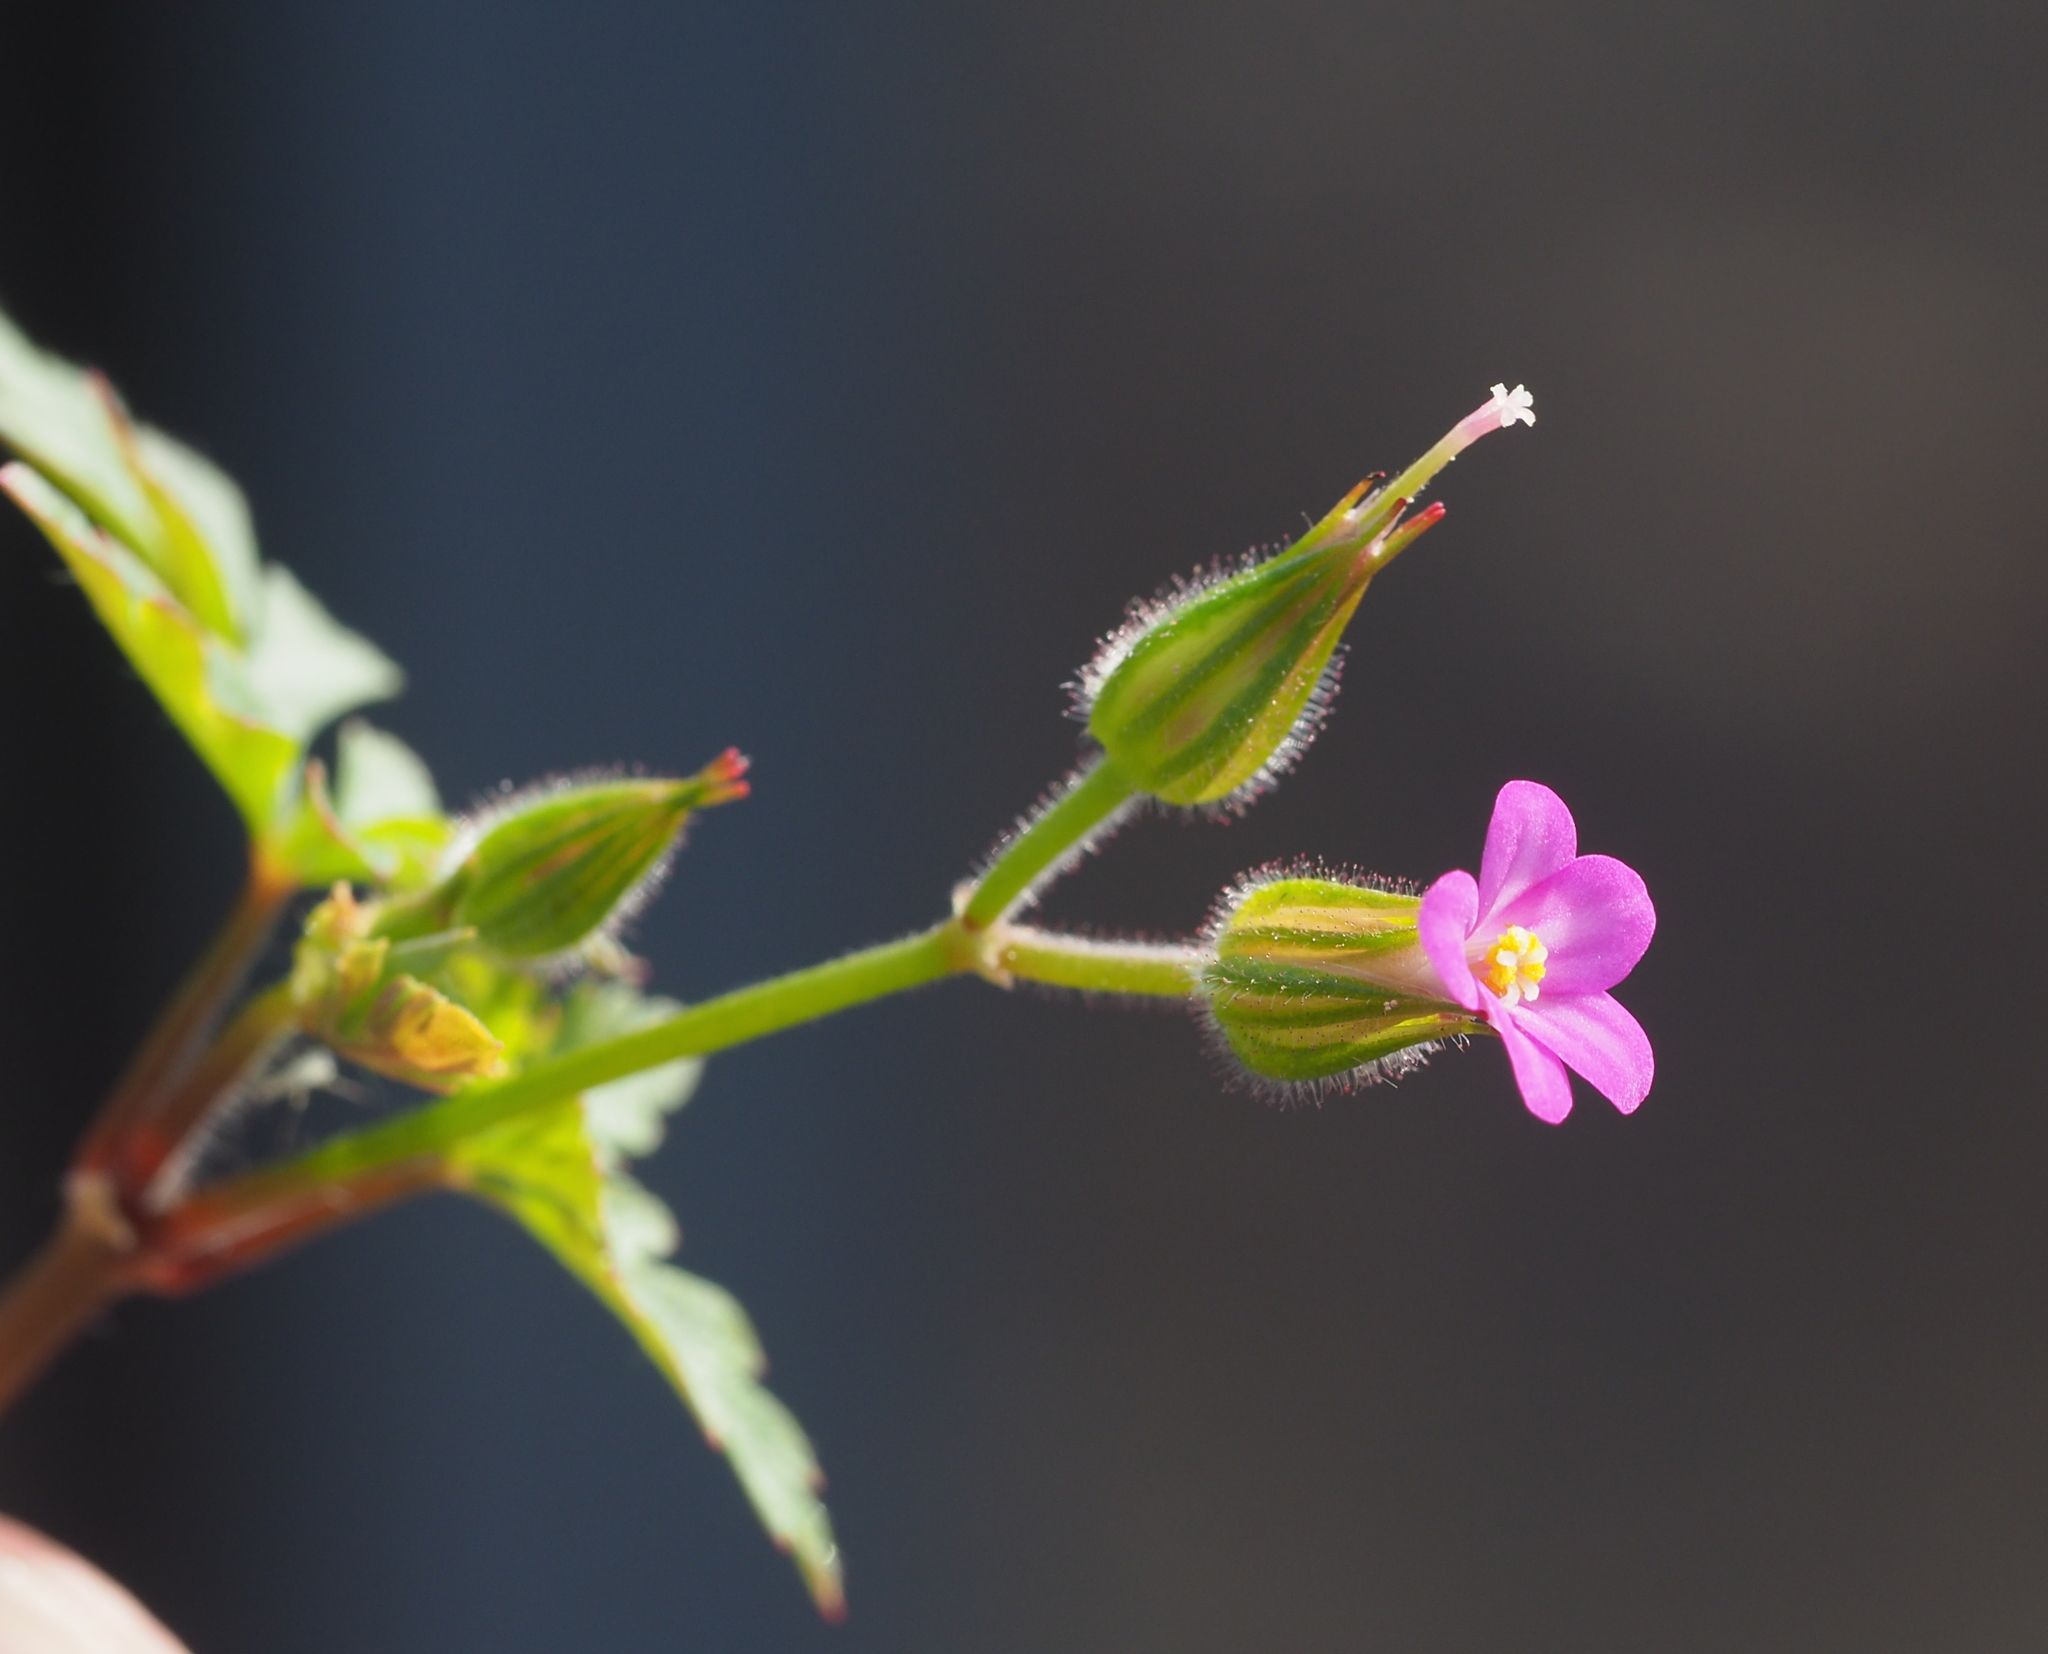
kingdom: Plantae
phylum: Tracheophyta
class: Magnoliopsida
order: Geraniales
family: Geraniaceae
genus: Geranium
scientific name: Geranium purpureum
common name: Little-robin
